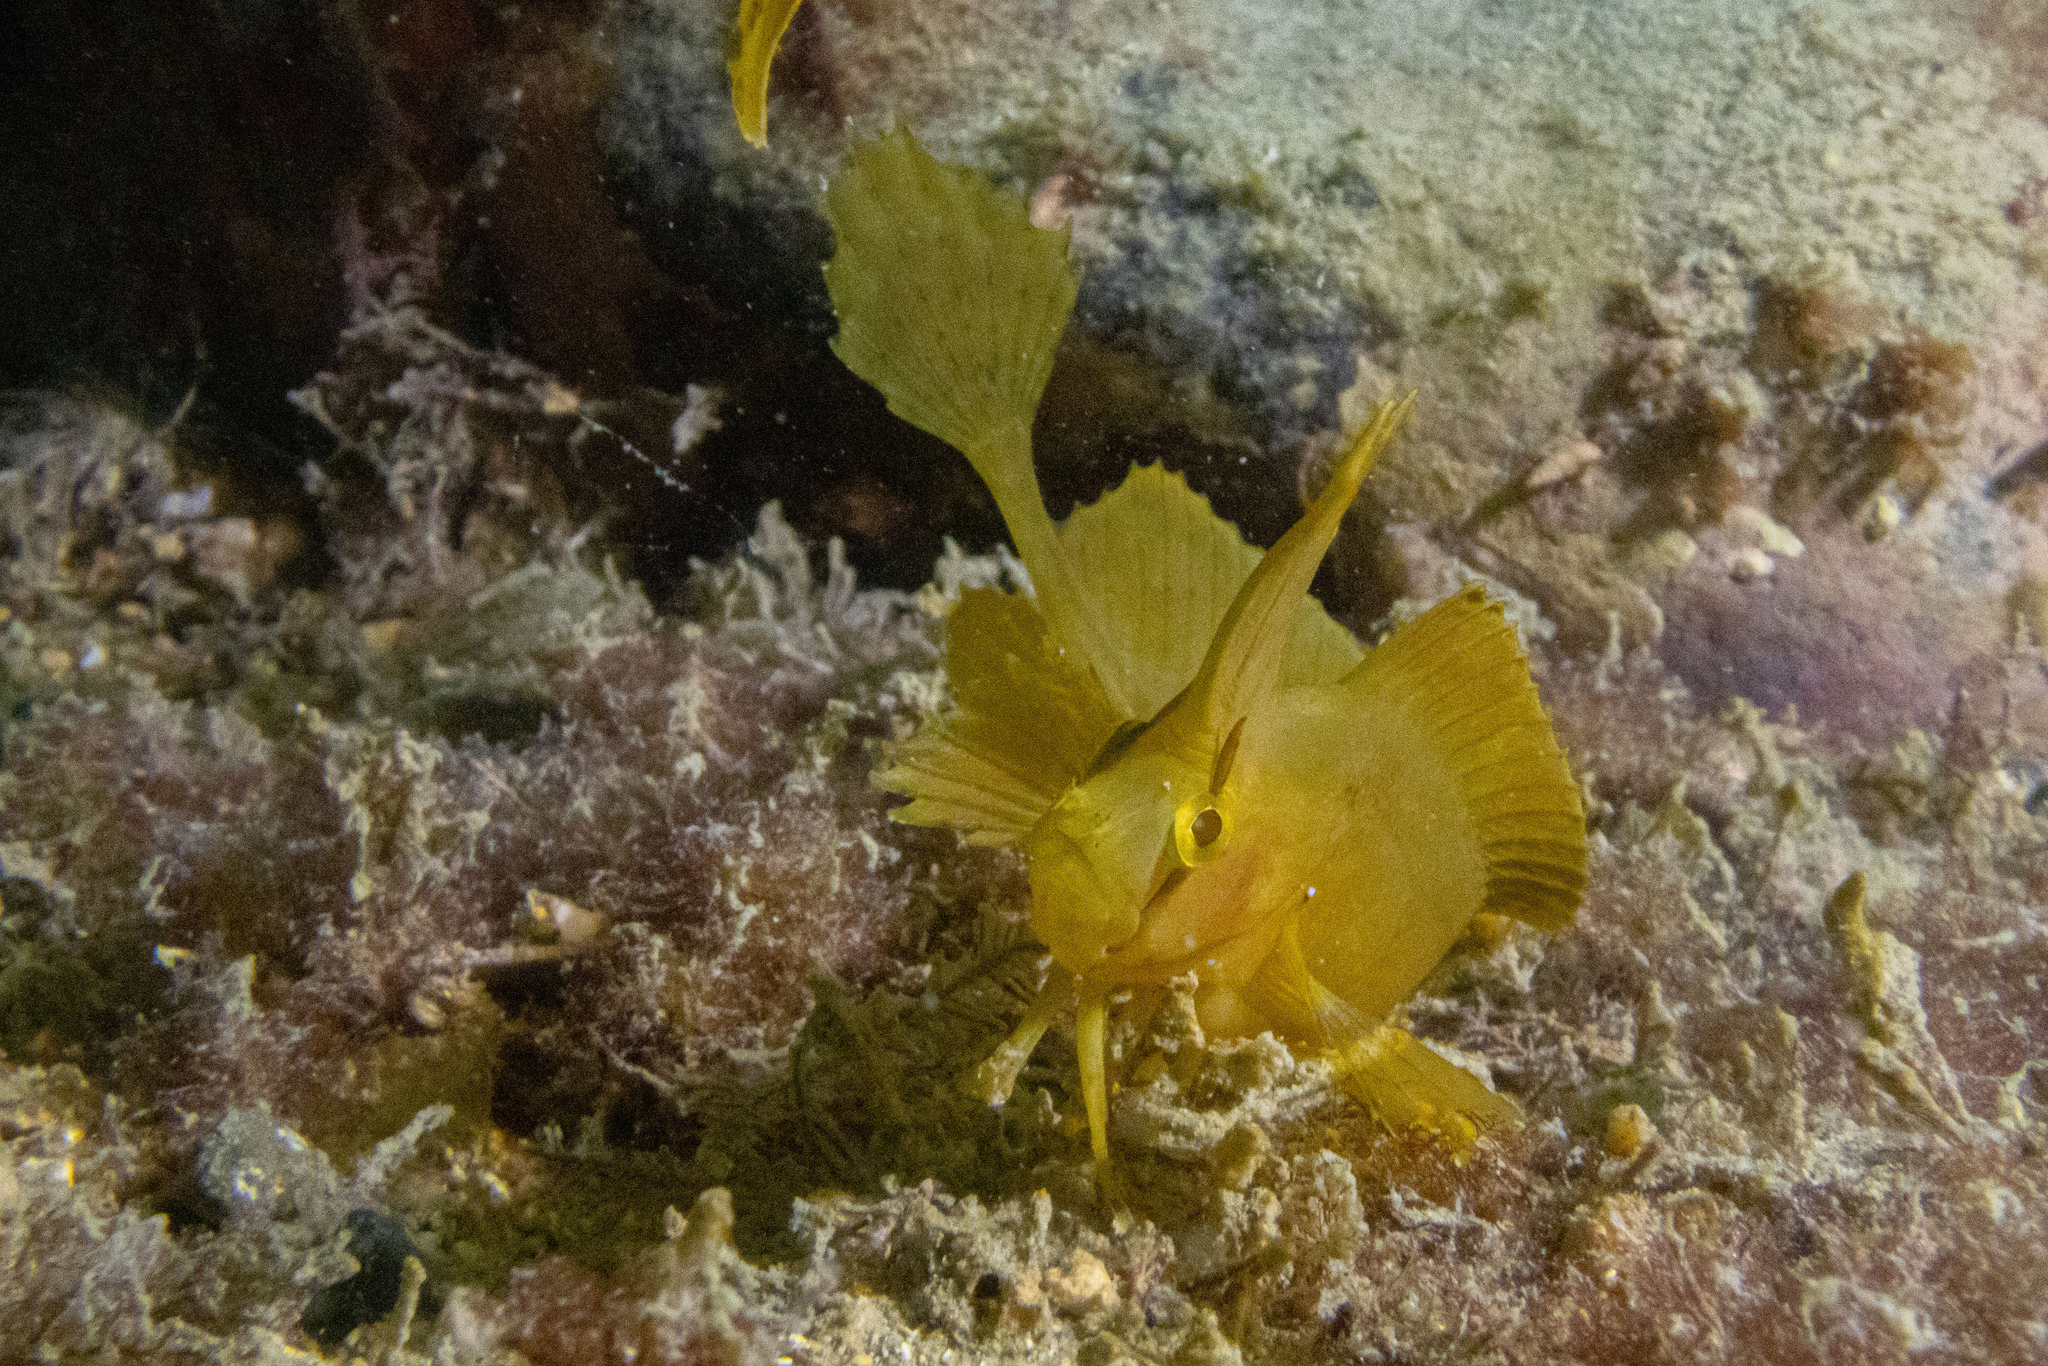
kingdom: Animalia
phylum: Chordata
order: Perciformes
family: Clinidae
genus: Cristiceps
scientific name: Cristiceps aurantiacus
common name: Crested weedfish
